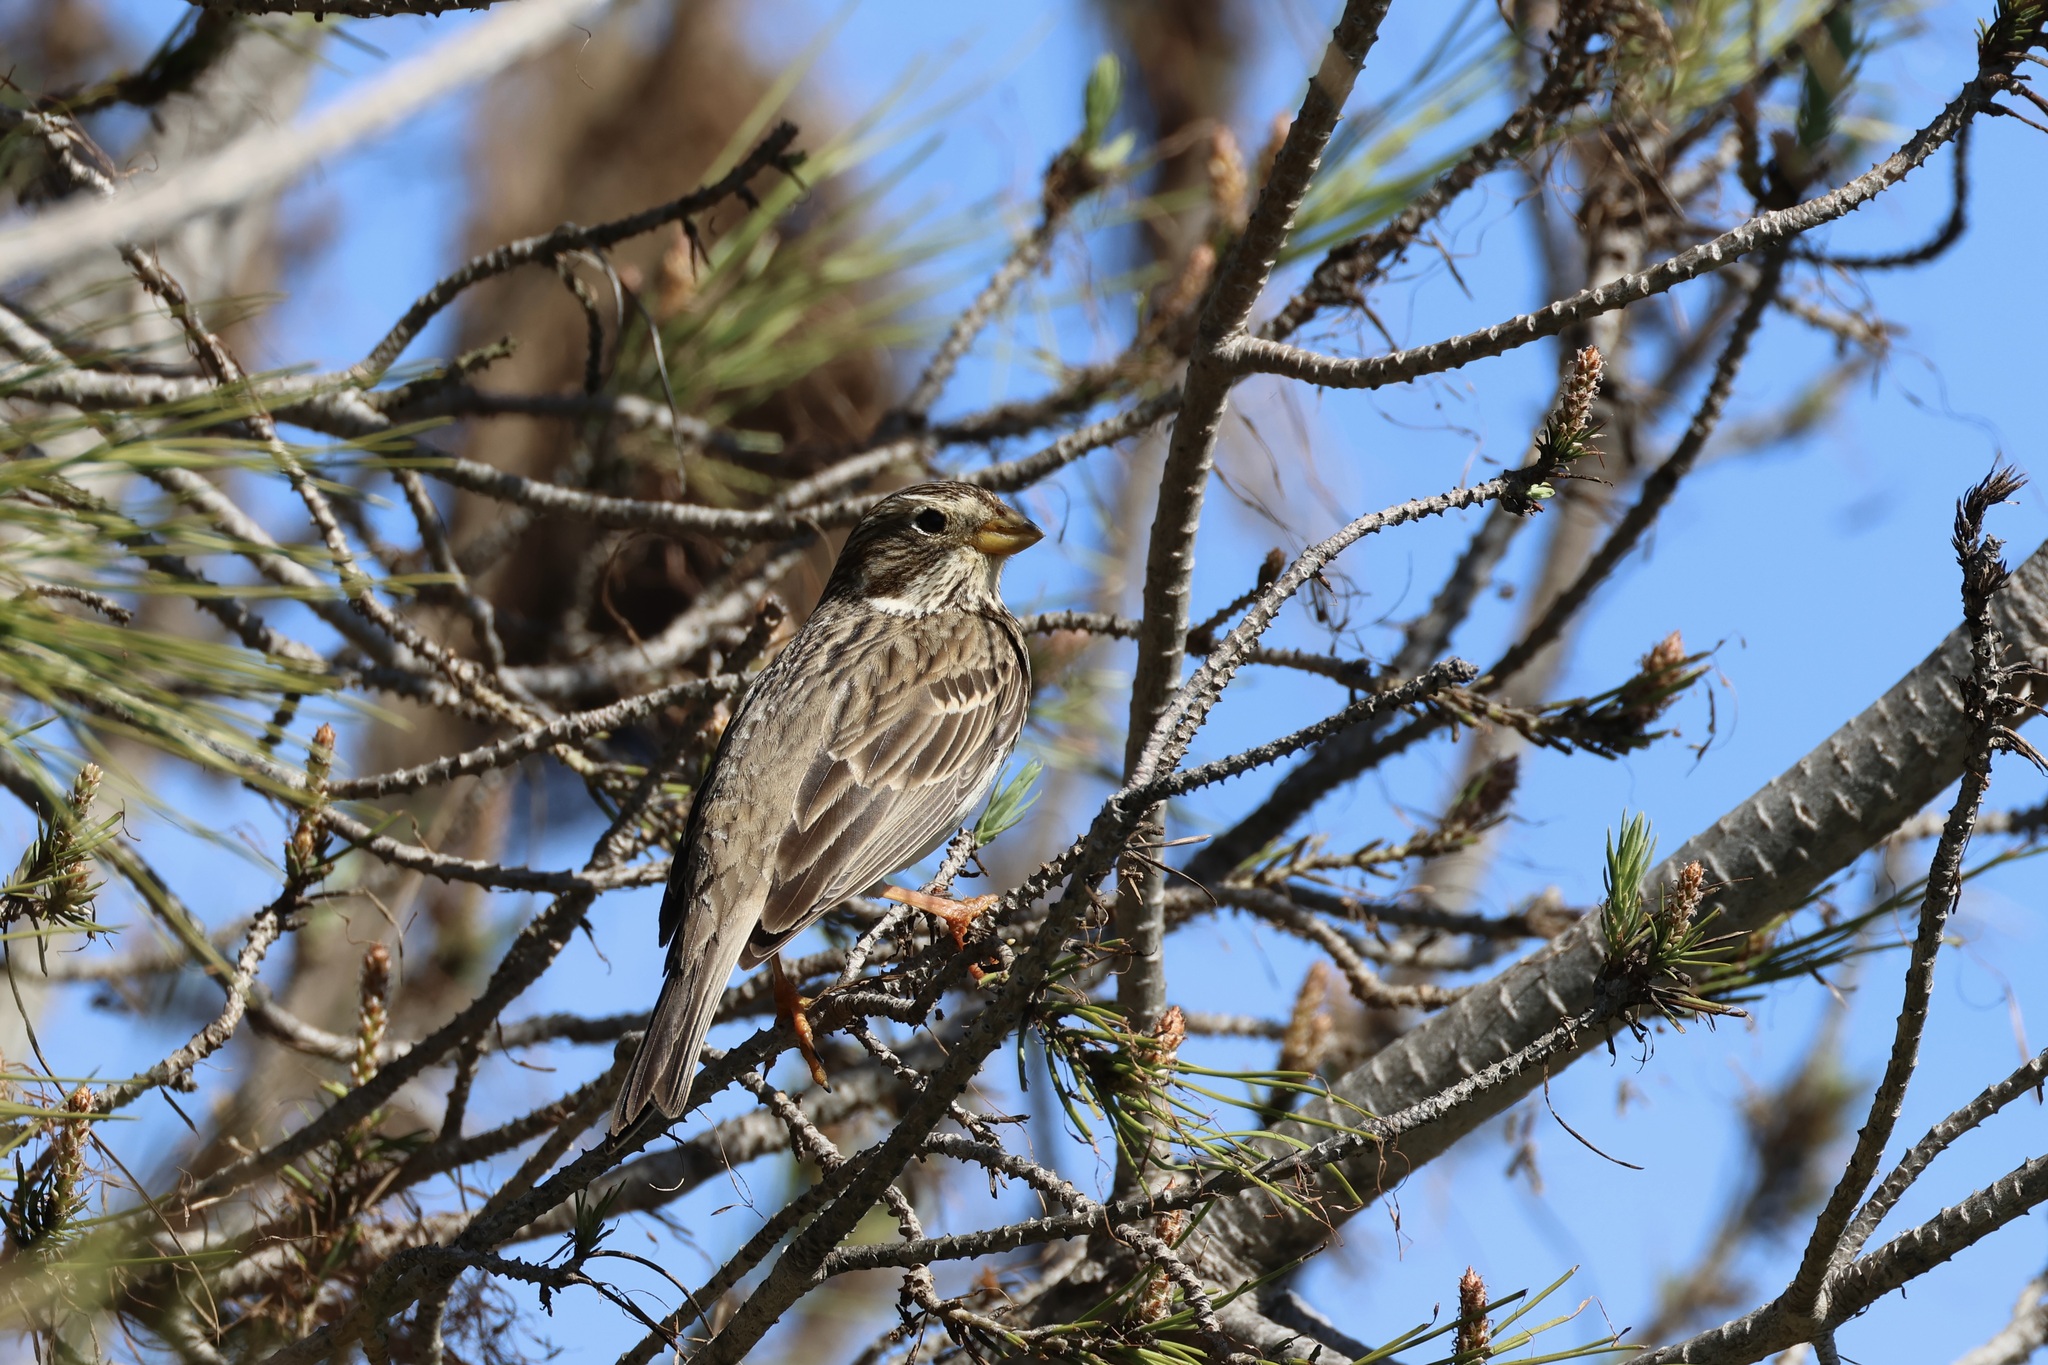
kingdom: Animalia
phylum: Chordata
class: Aves
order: Passeriformes
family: Emberizidae
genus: Emberiza
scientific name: Emberiza calandra
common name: Corn bunting
